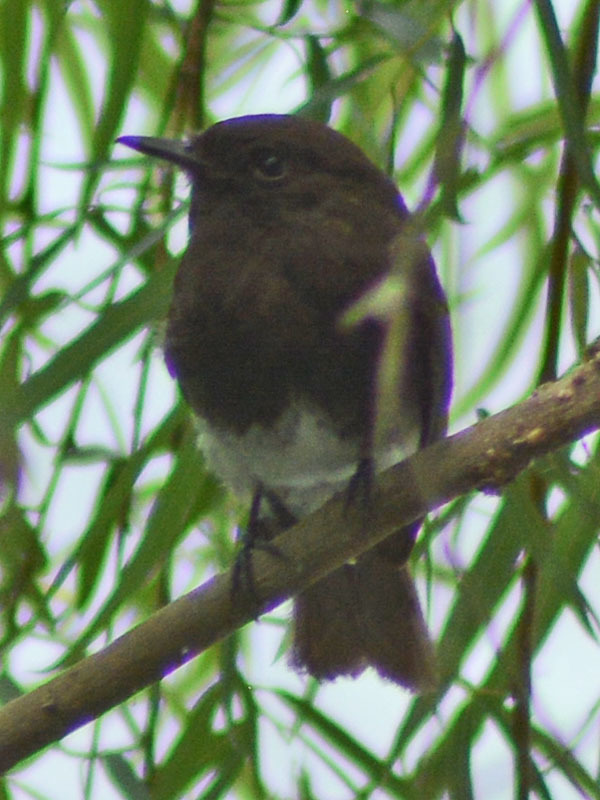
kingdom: Animalia
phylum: Chordata
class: Aves
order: Passeriformes
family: Tyrannidae
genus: Sayornis
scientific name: Sayornis nigricans
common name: Black phoebe
